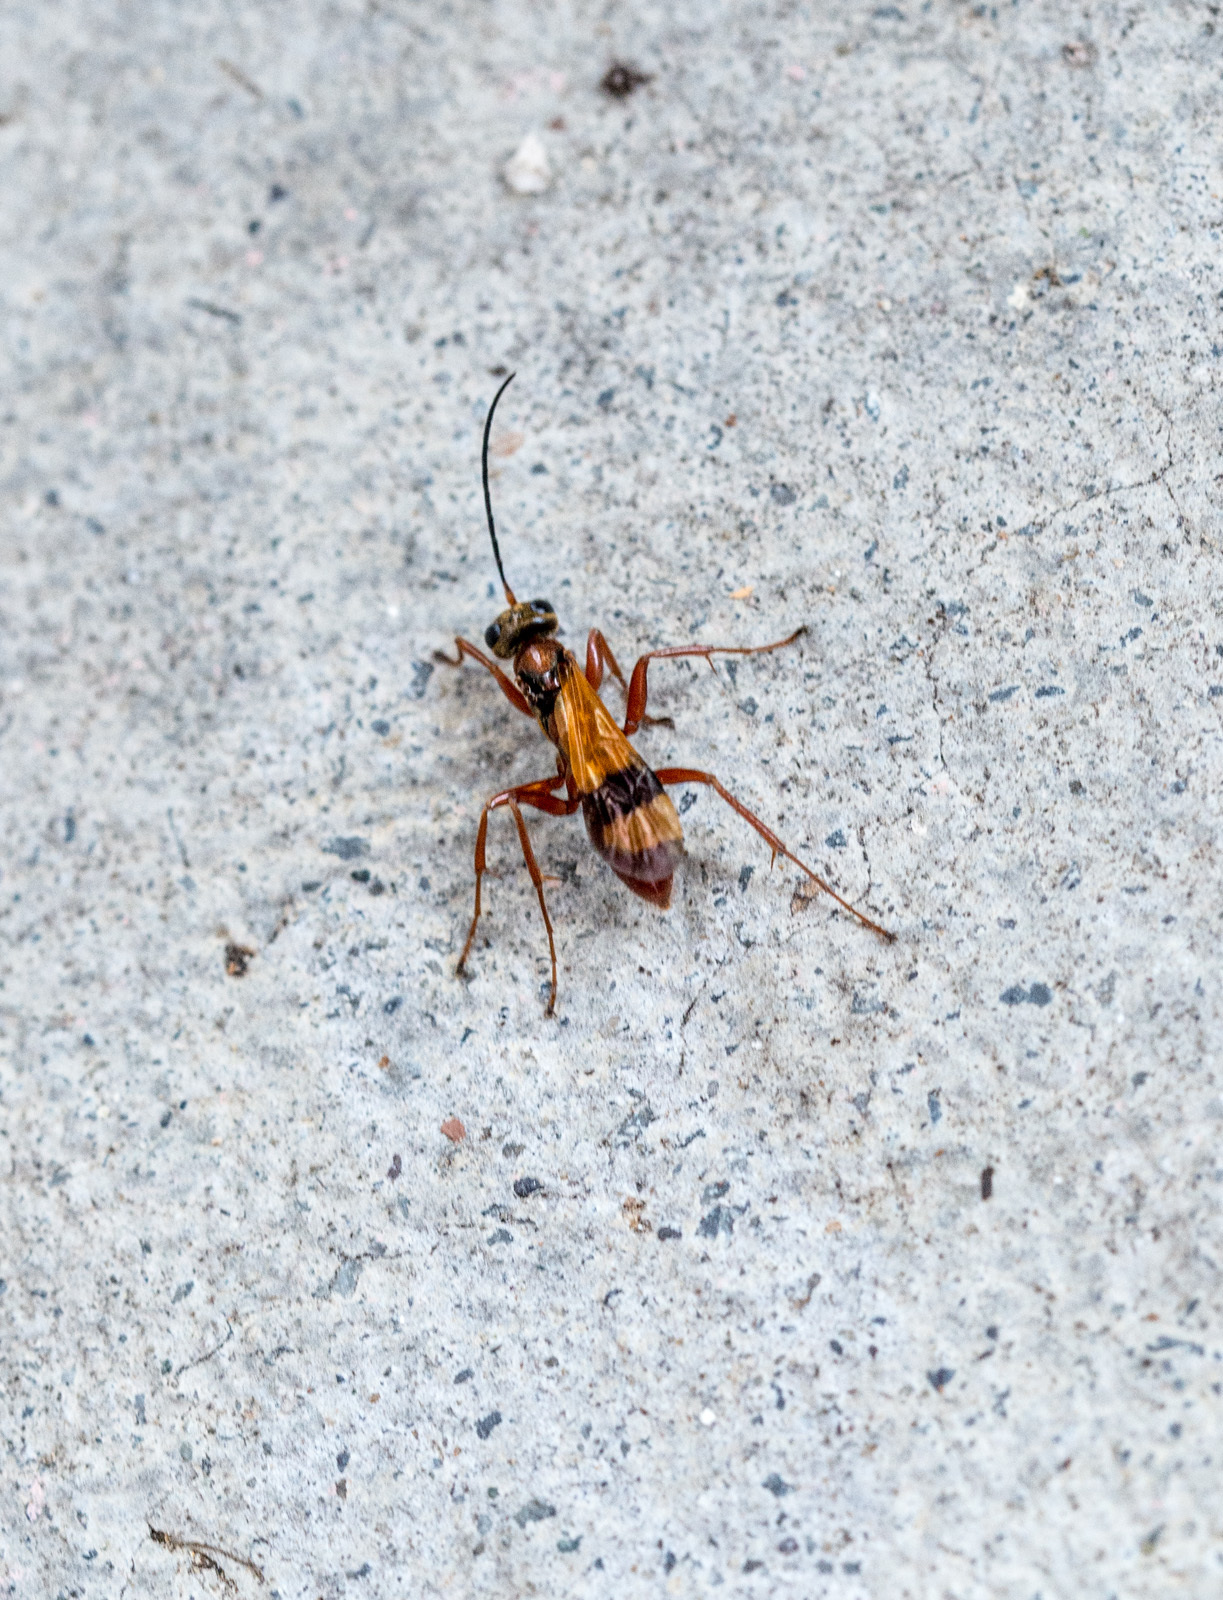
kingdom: Animalia
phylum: Arthropoda
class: Insecta
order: Hymenoptera
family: Pompilidae
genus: Sphictostethus
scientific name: Sphictostethus calvus
